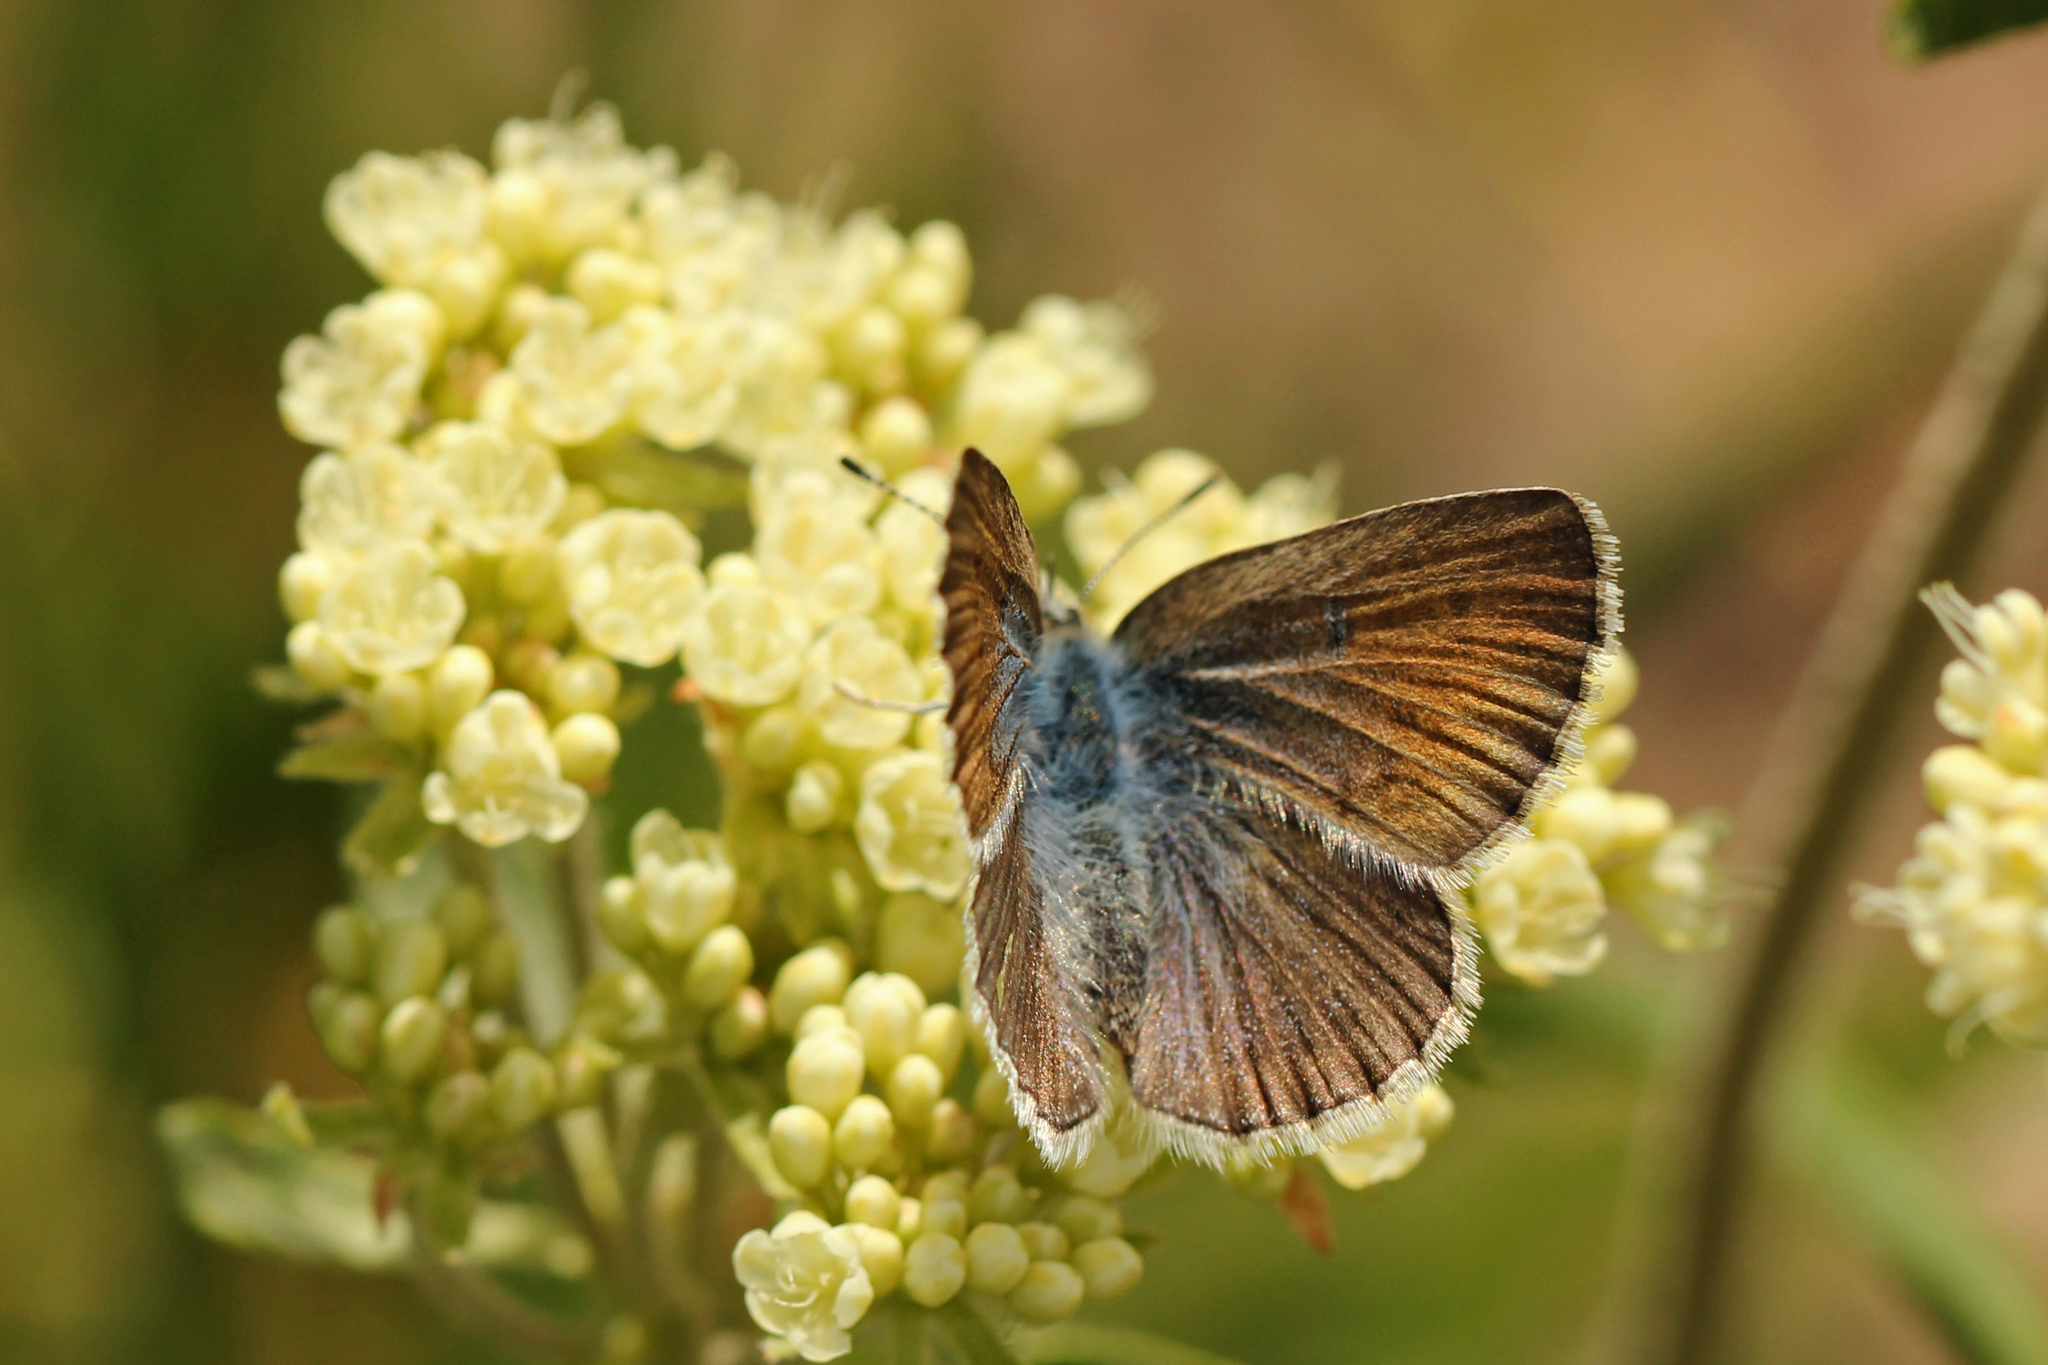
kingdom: Animalia
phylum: Arthropoda
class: Insecta
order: Lepidoptera
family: Lycaenidae
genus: Icaricia
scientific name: Icaricia icarioides
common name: Boisduval's blue
